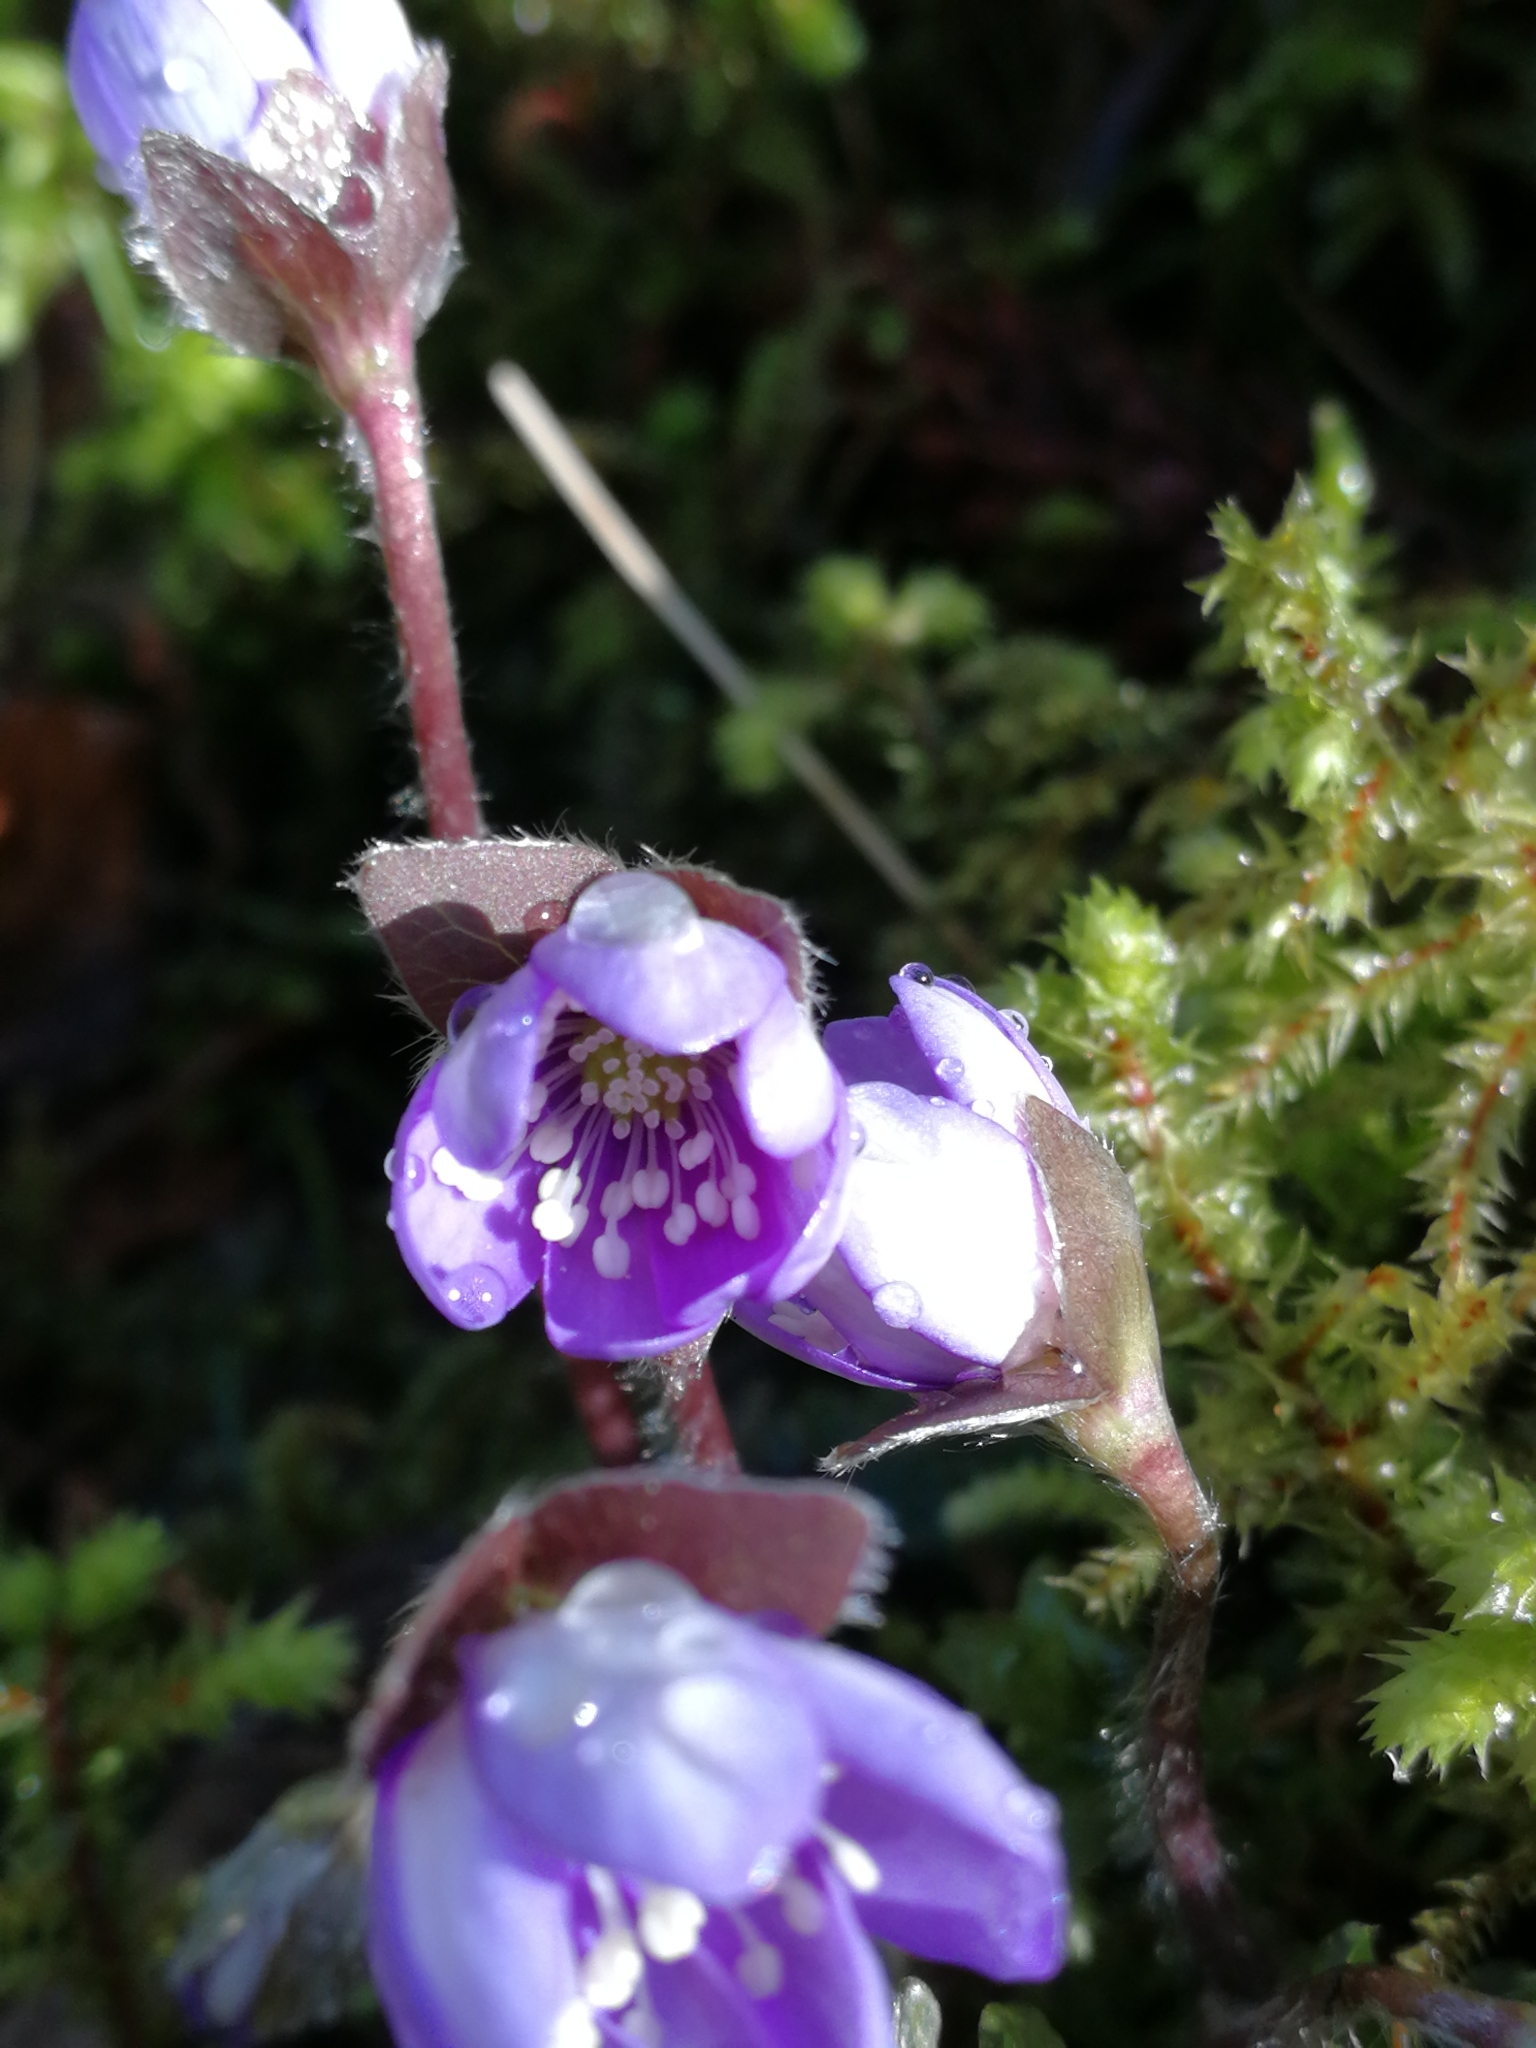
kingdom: Plantae
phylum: Tracheophyta
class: Magnoliopsida
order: Ranunculales
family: Ranunculaceae
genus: Hepatica
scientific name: Hepatica nobilis
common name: Liverleaf
